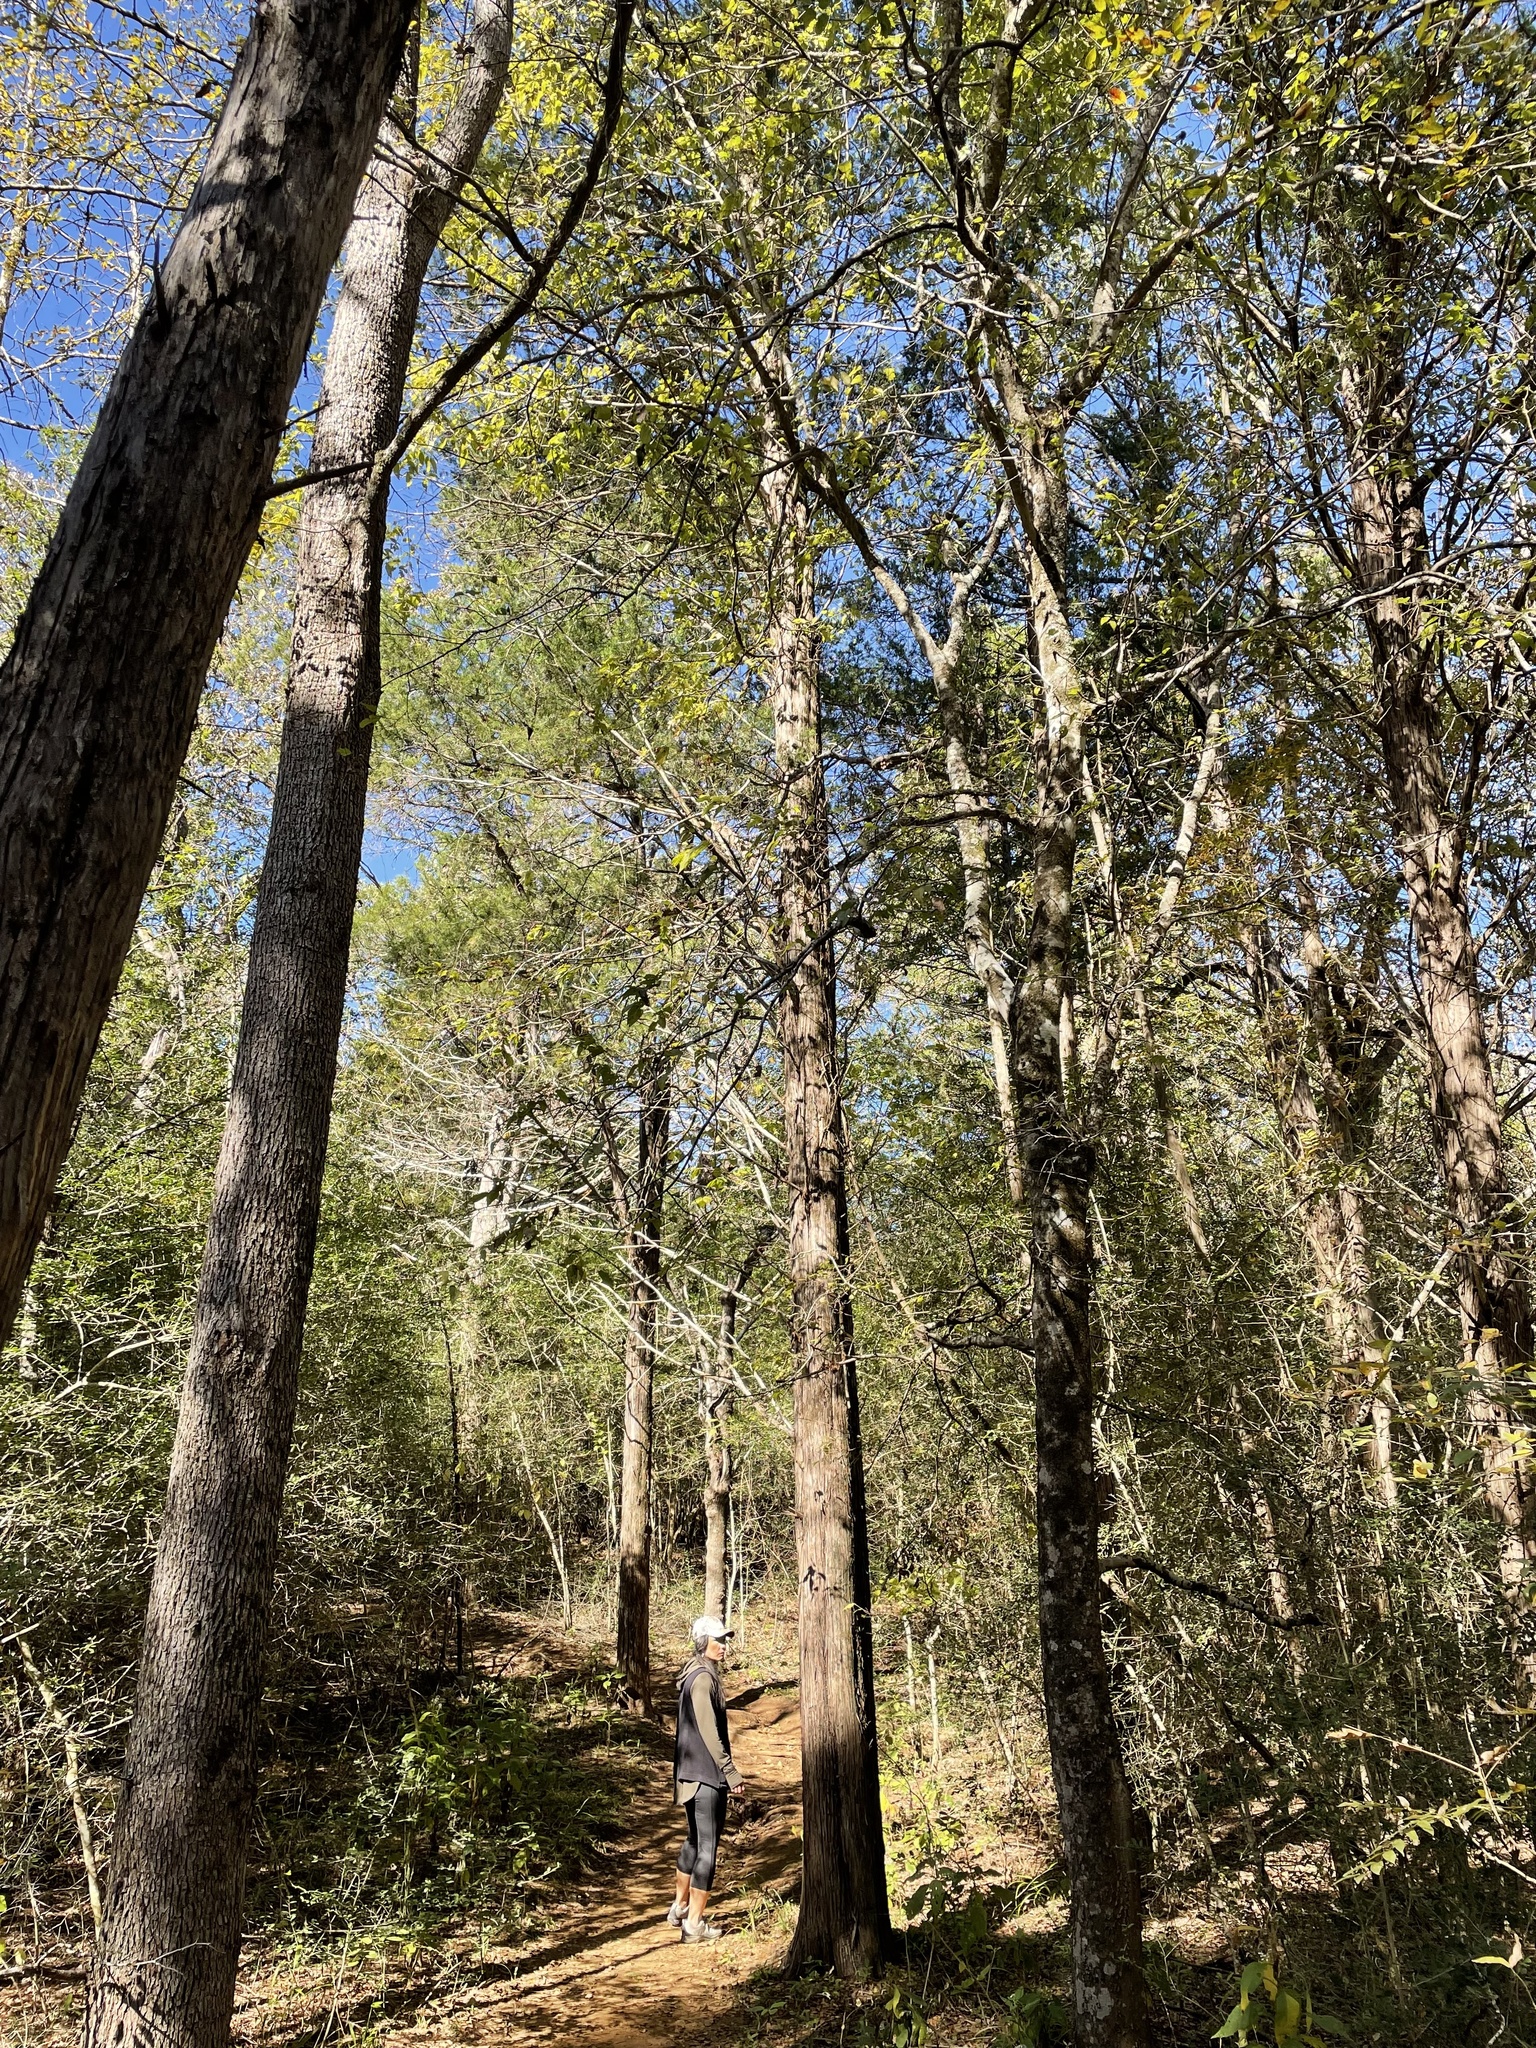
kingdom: Plantae
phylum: Tracheophyta
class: Pinopsida
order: Pinales
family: Cupressaceae
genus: Juniperus
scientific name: Juniperus virginiana
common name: Red juniper
